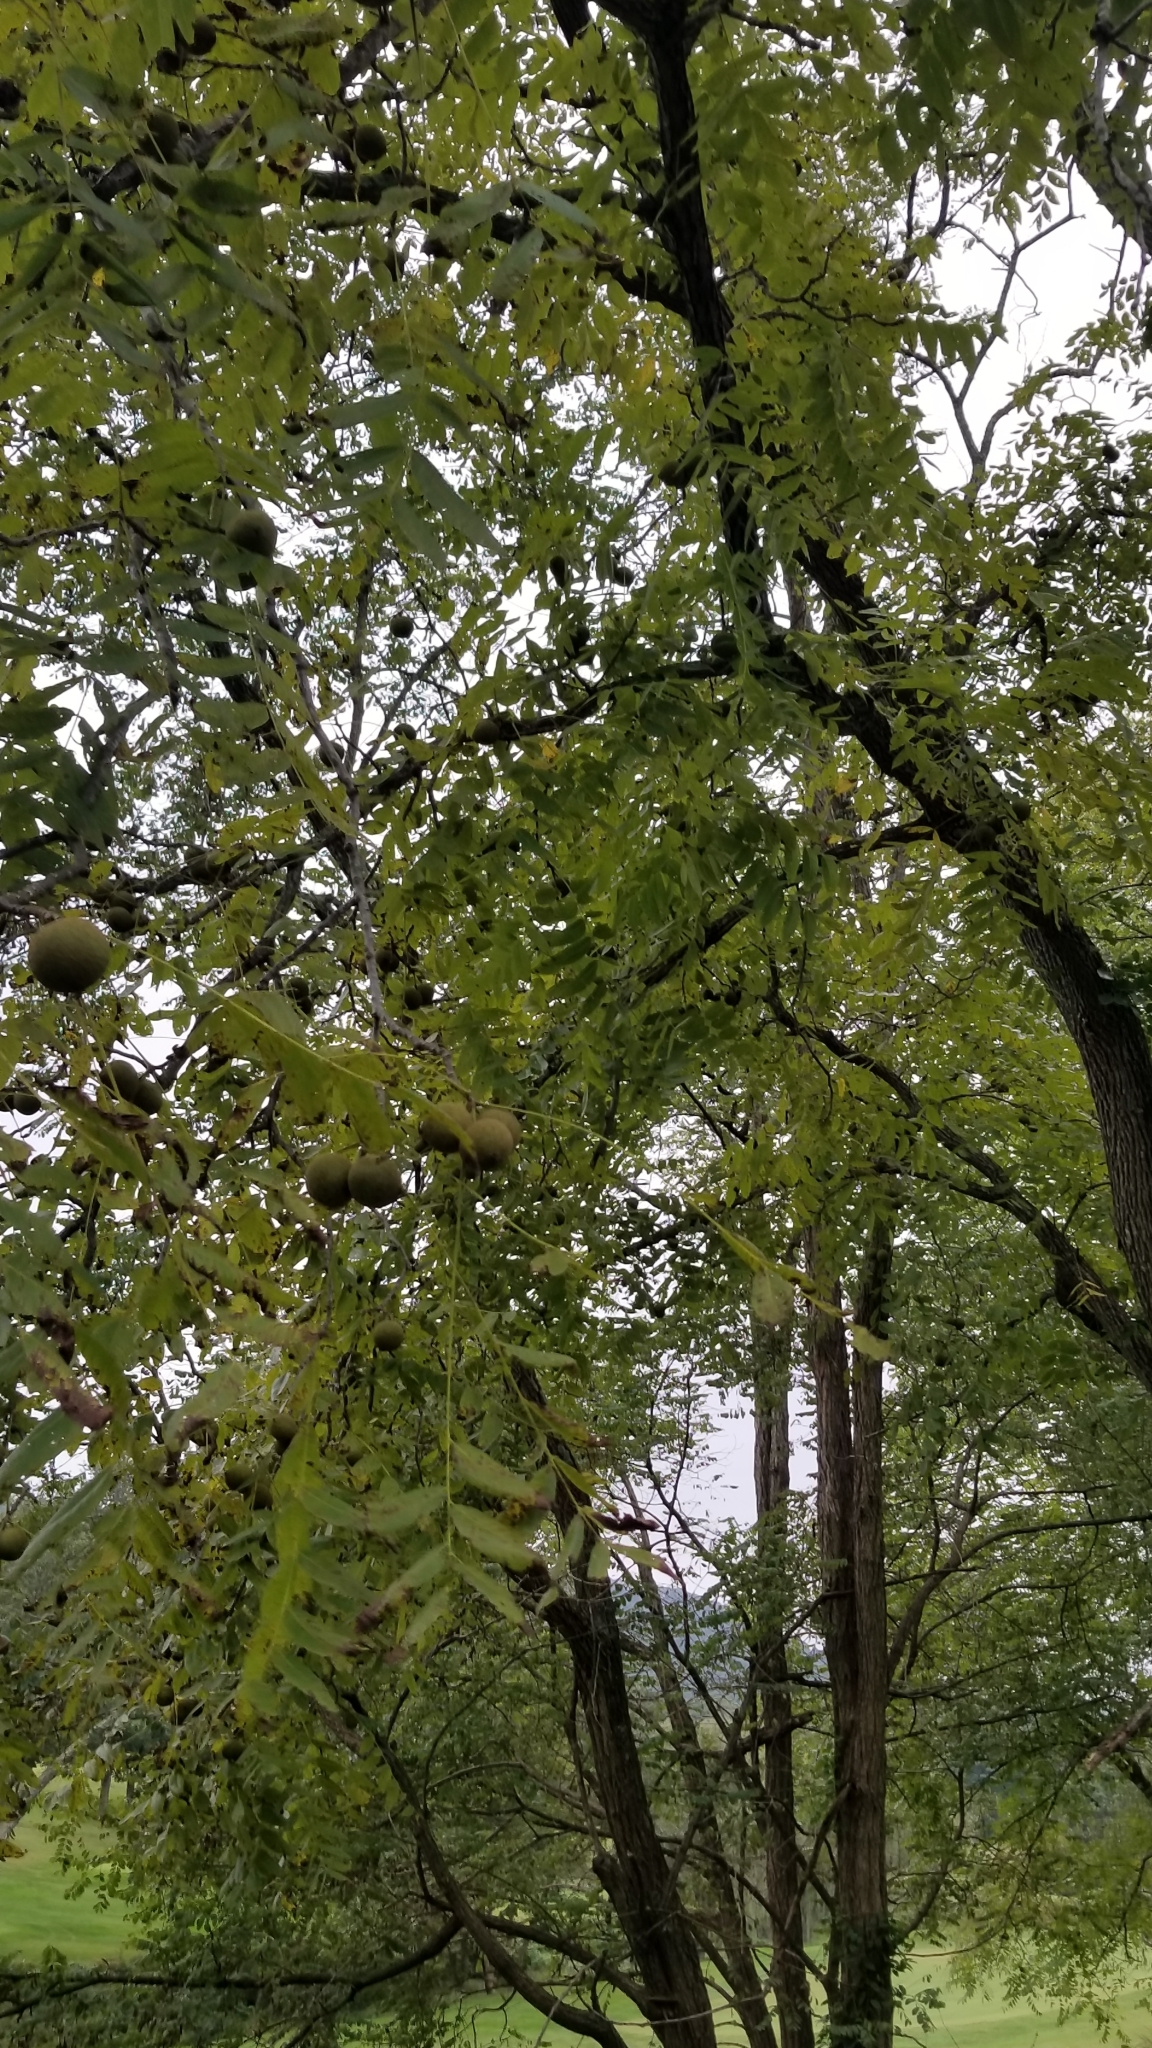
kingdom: Plantae
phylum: Tracheophyta
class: Magnoliopsida
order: Fagales
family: Juglandaceae
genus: Juglans
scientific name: Juglans nigra
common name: Black walnut
